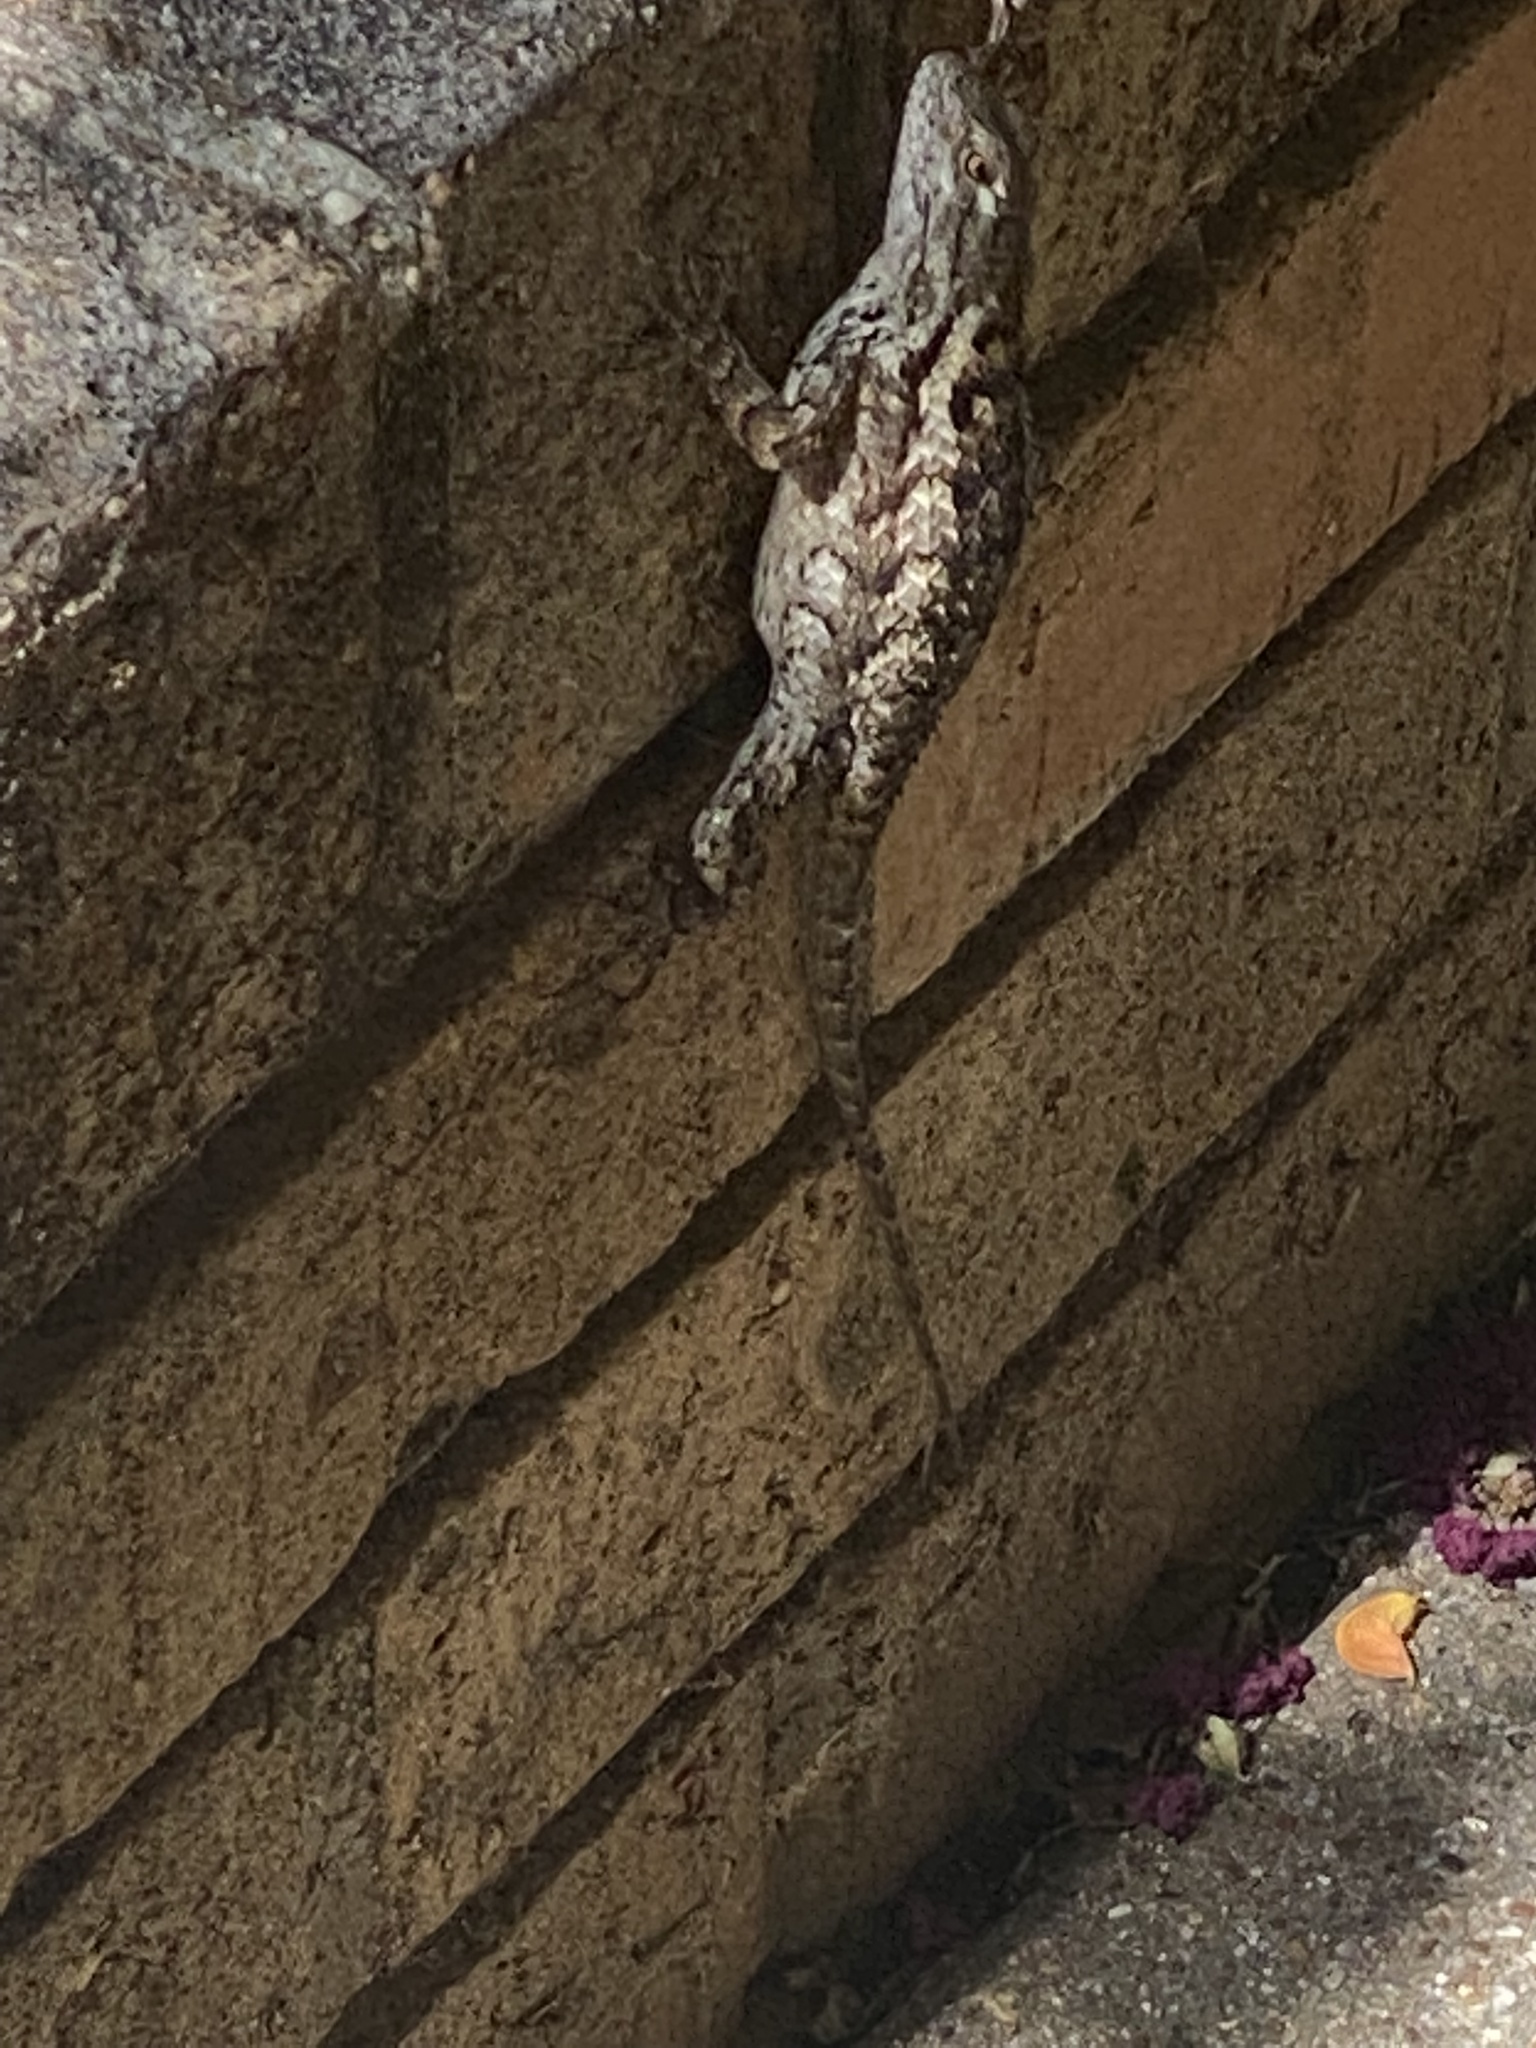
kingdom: Animalia
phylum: Chordata
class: Squamata
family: Phrynosomatidae
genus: Sceloporus
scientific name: Sceloporus olivaceus
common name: Texas spiny lizard
